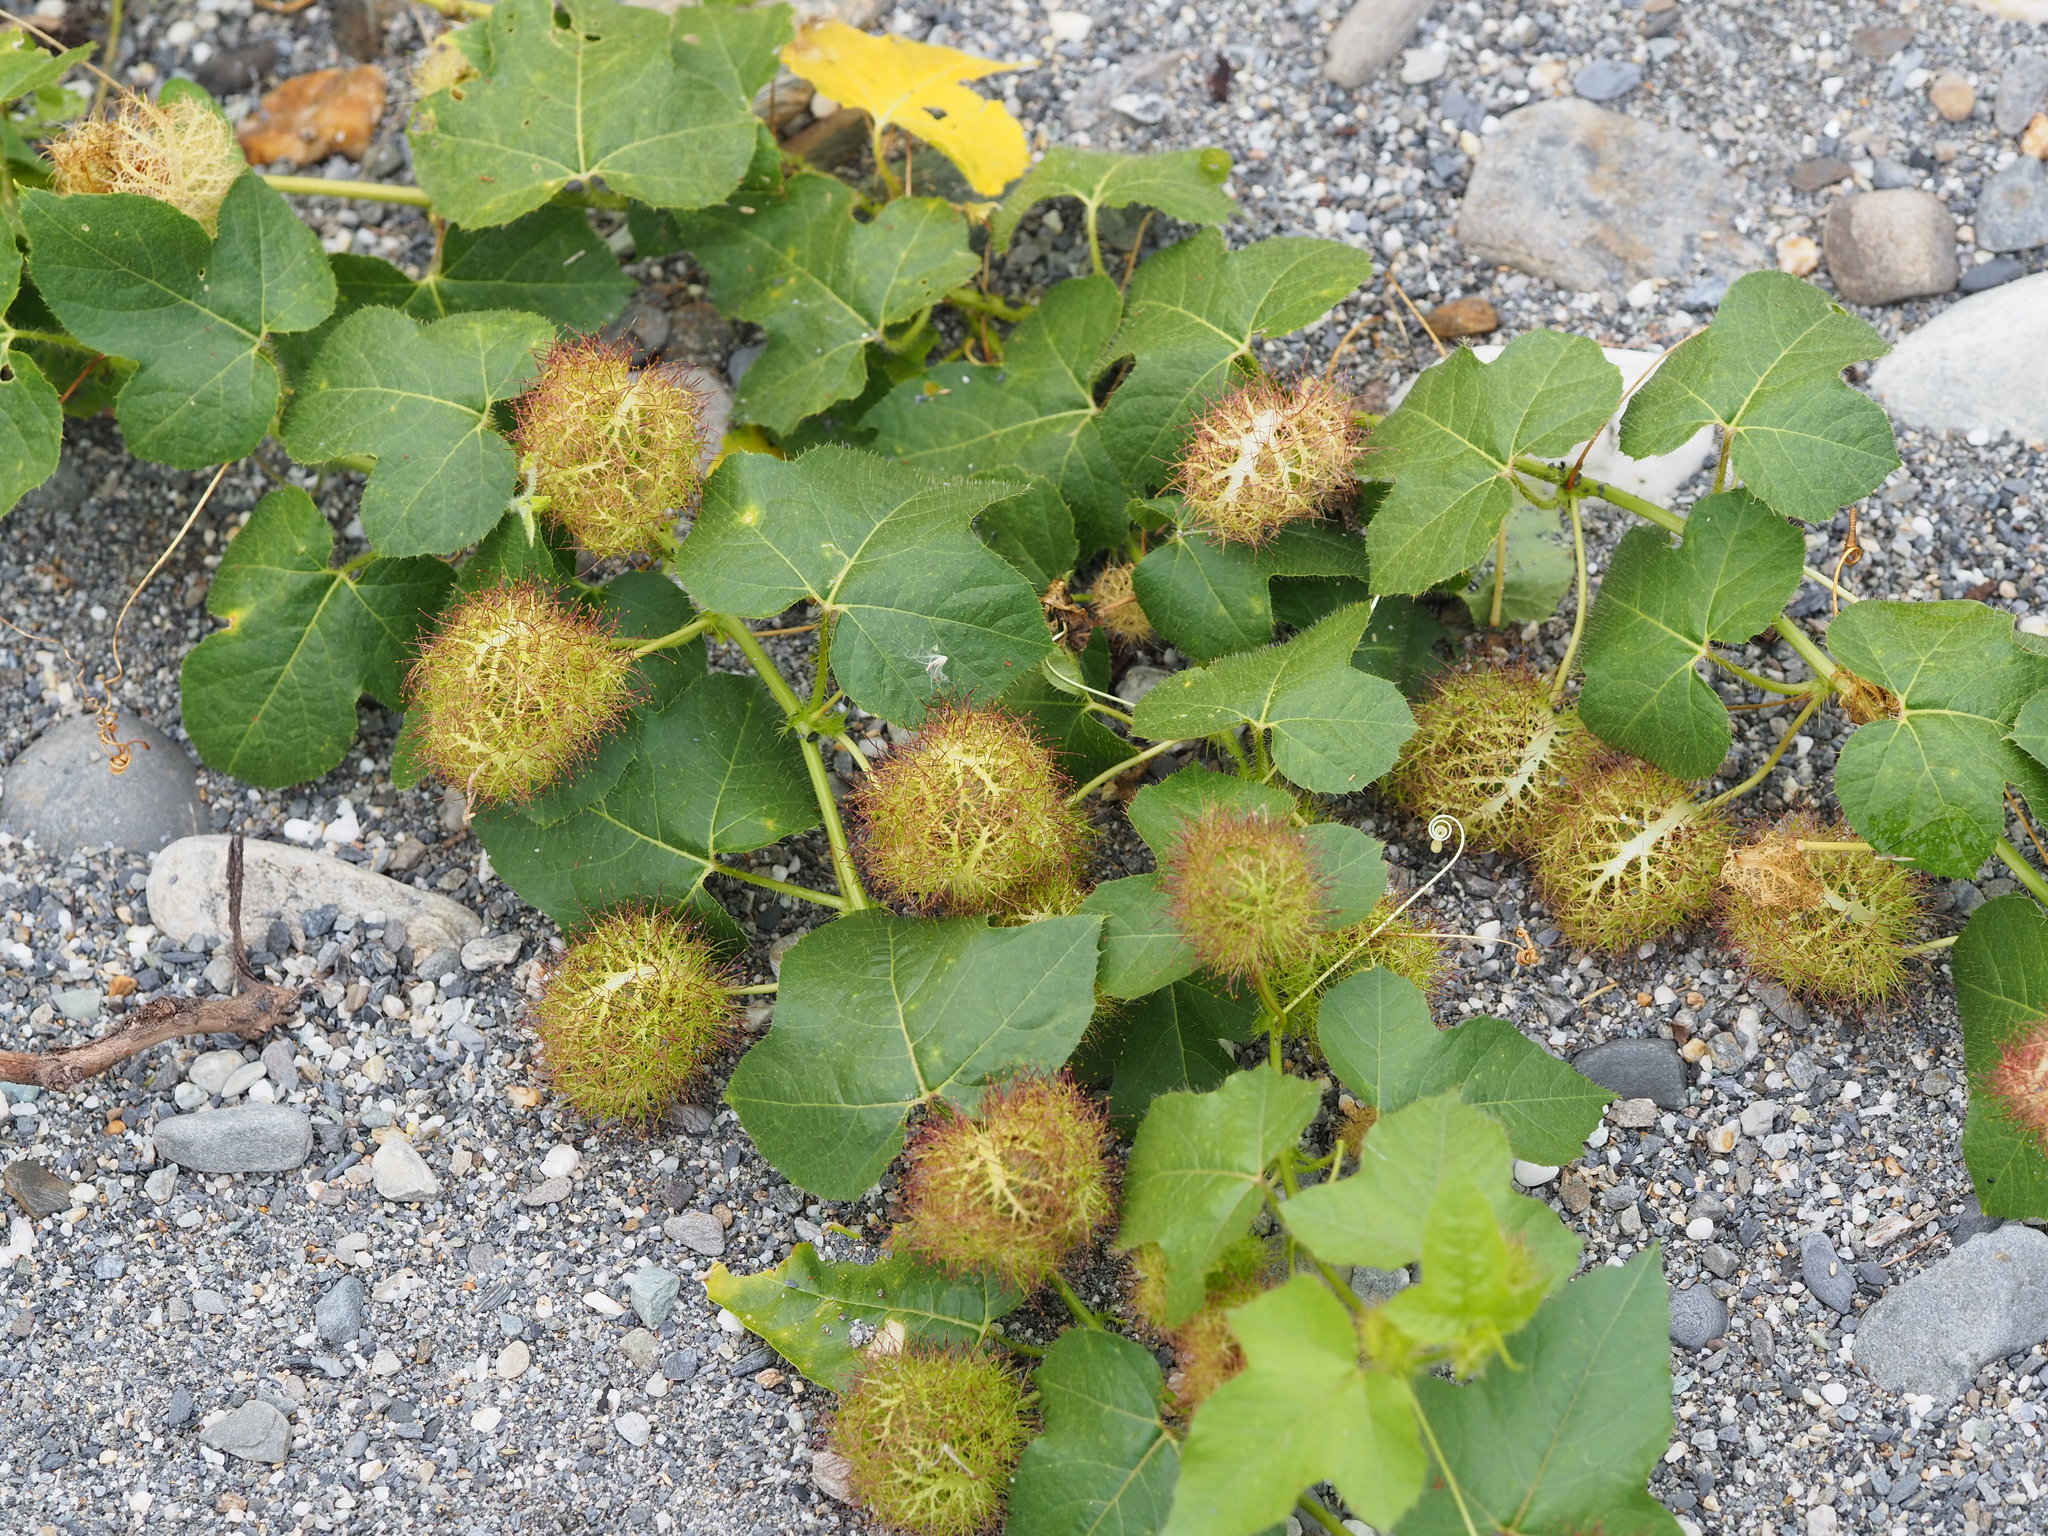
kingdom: Plantae
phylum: Tracheophyta
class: Magnoliopsida
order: Malpighiales
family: Passifloraceae
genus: Passiflora
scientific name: Passiflora vesicaria
